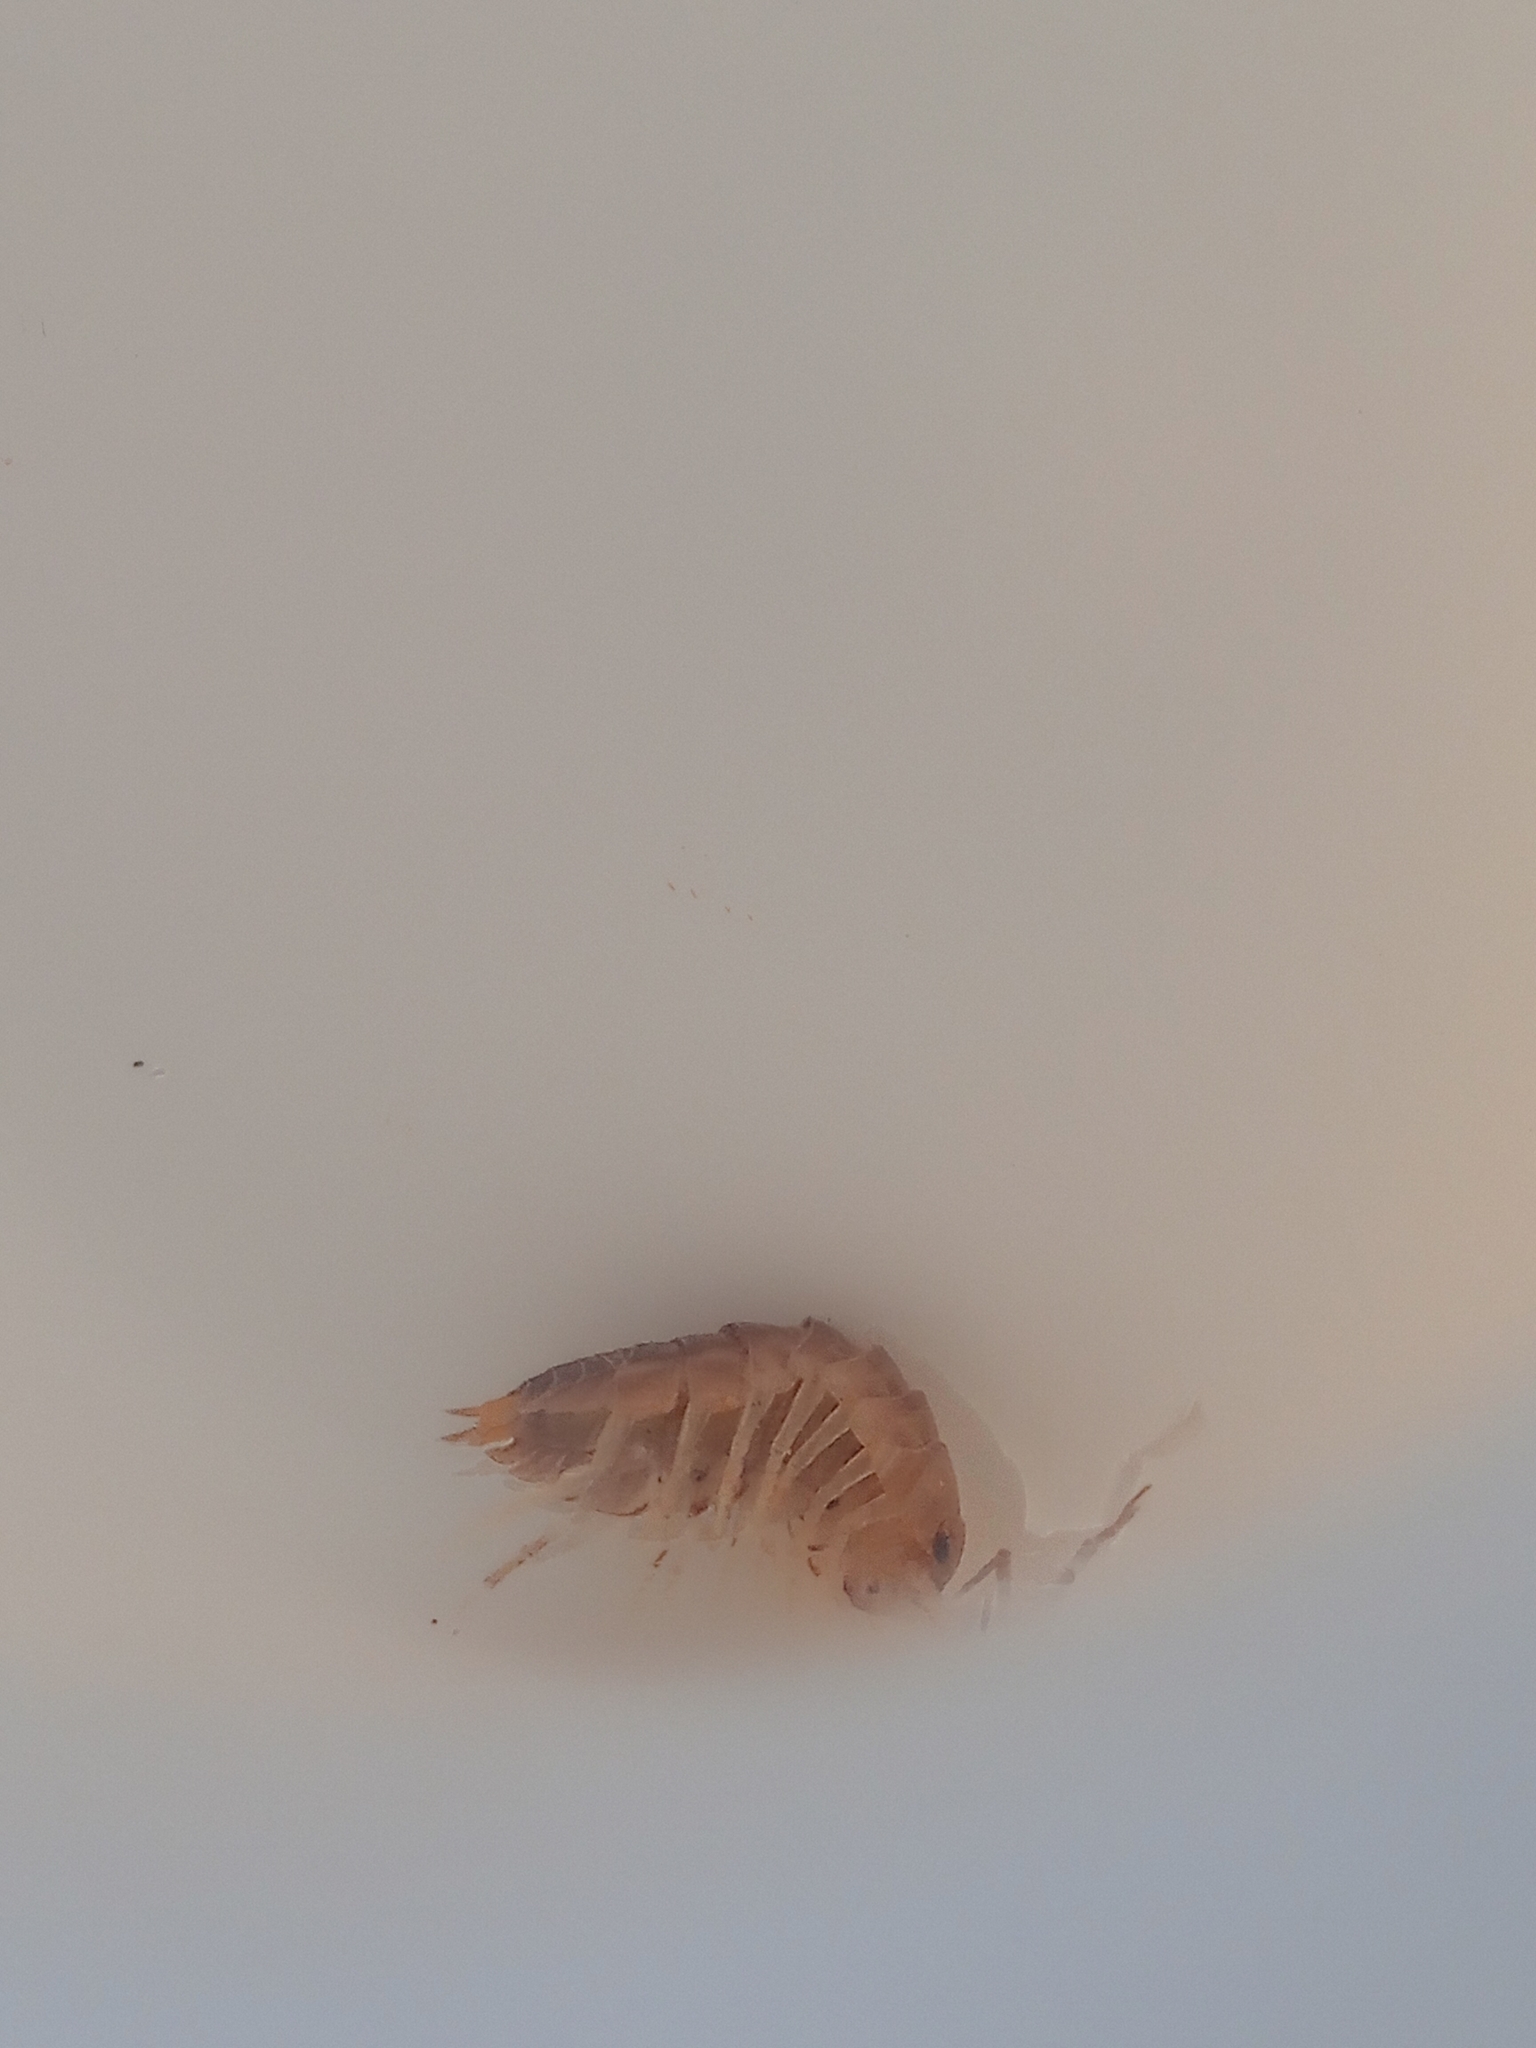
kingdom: Animalia
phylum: Arthropoda
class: Malacostraca
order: Isopoda
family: Cylisticidae
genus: Cylisticus
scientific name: Cylisticus convexus
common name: Curly woodlouse
